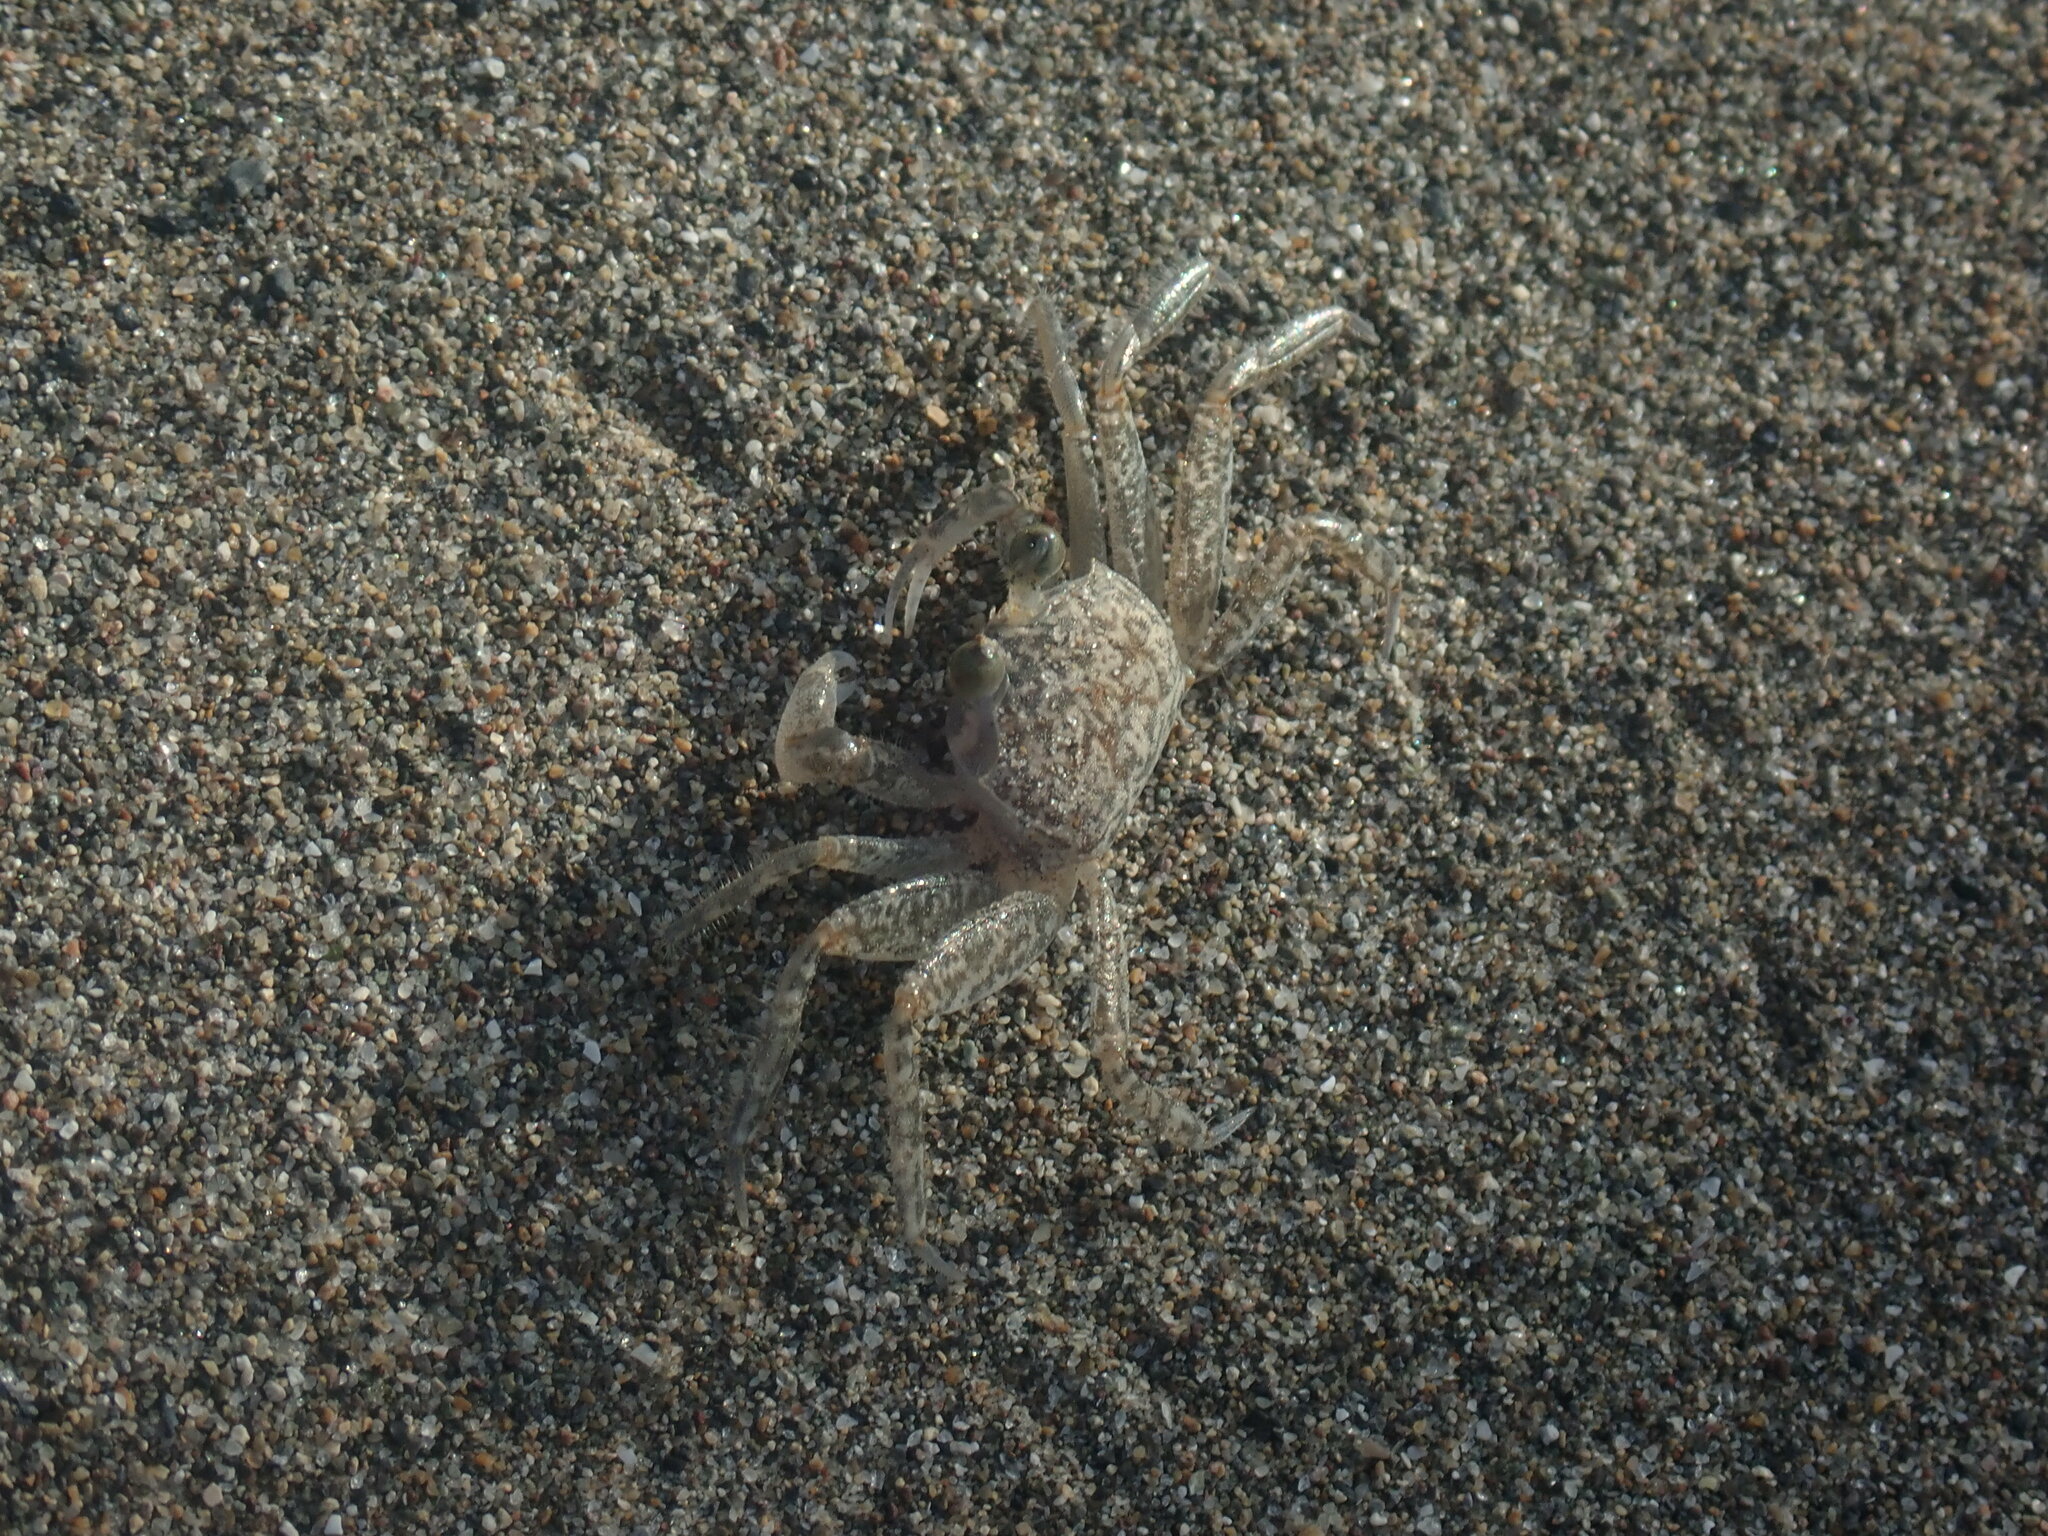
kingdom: Animalia
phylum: Arthropoda
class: Malacostraca
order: Decapoda
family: Ocypodidae
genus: Ocypode
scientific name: Ocypode quadrata
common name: Ghost crab
